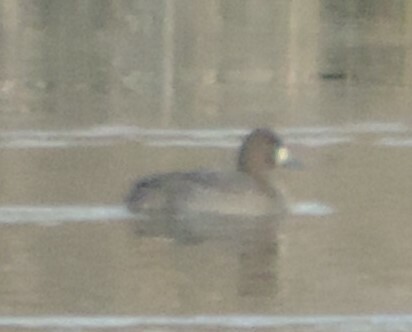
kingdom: Animalia
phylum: Chordata
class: Aves
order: Anseriformes
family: Anatidae
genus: Aythya
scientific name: Aythya affinis
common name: Lesser scaup
